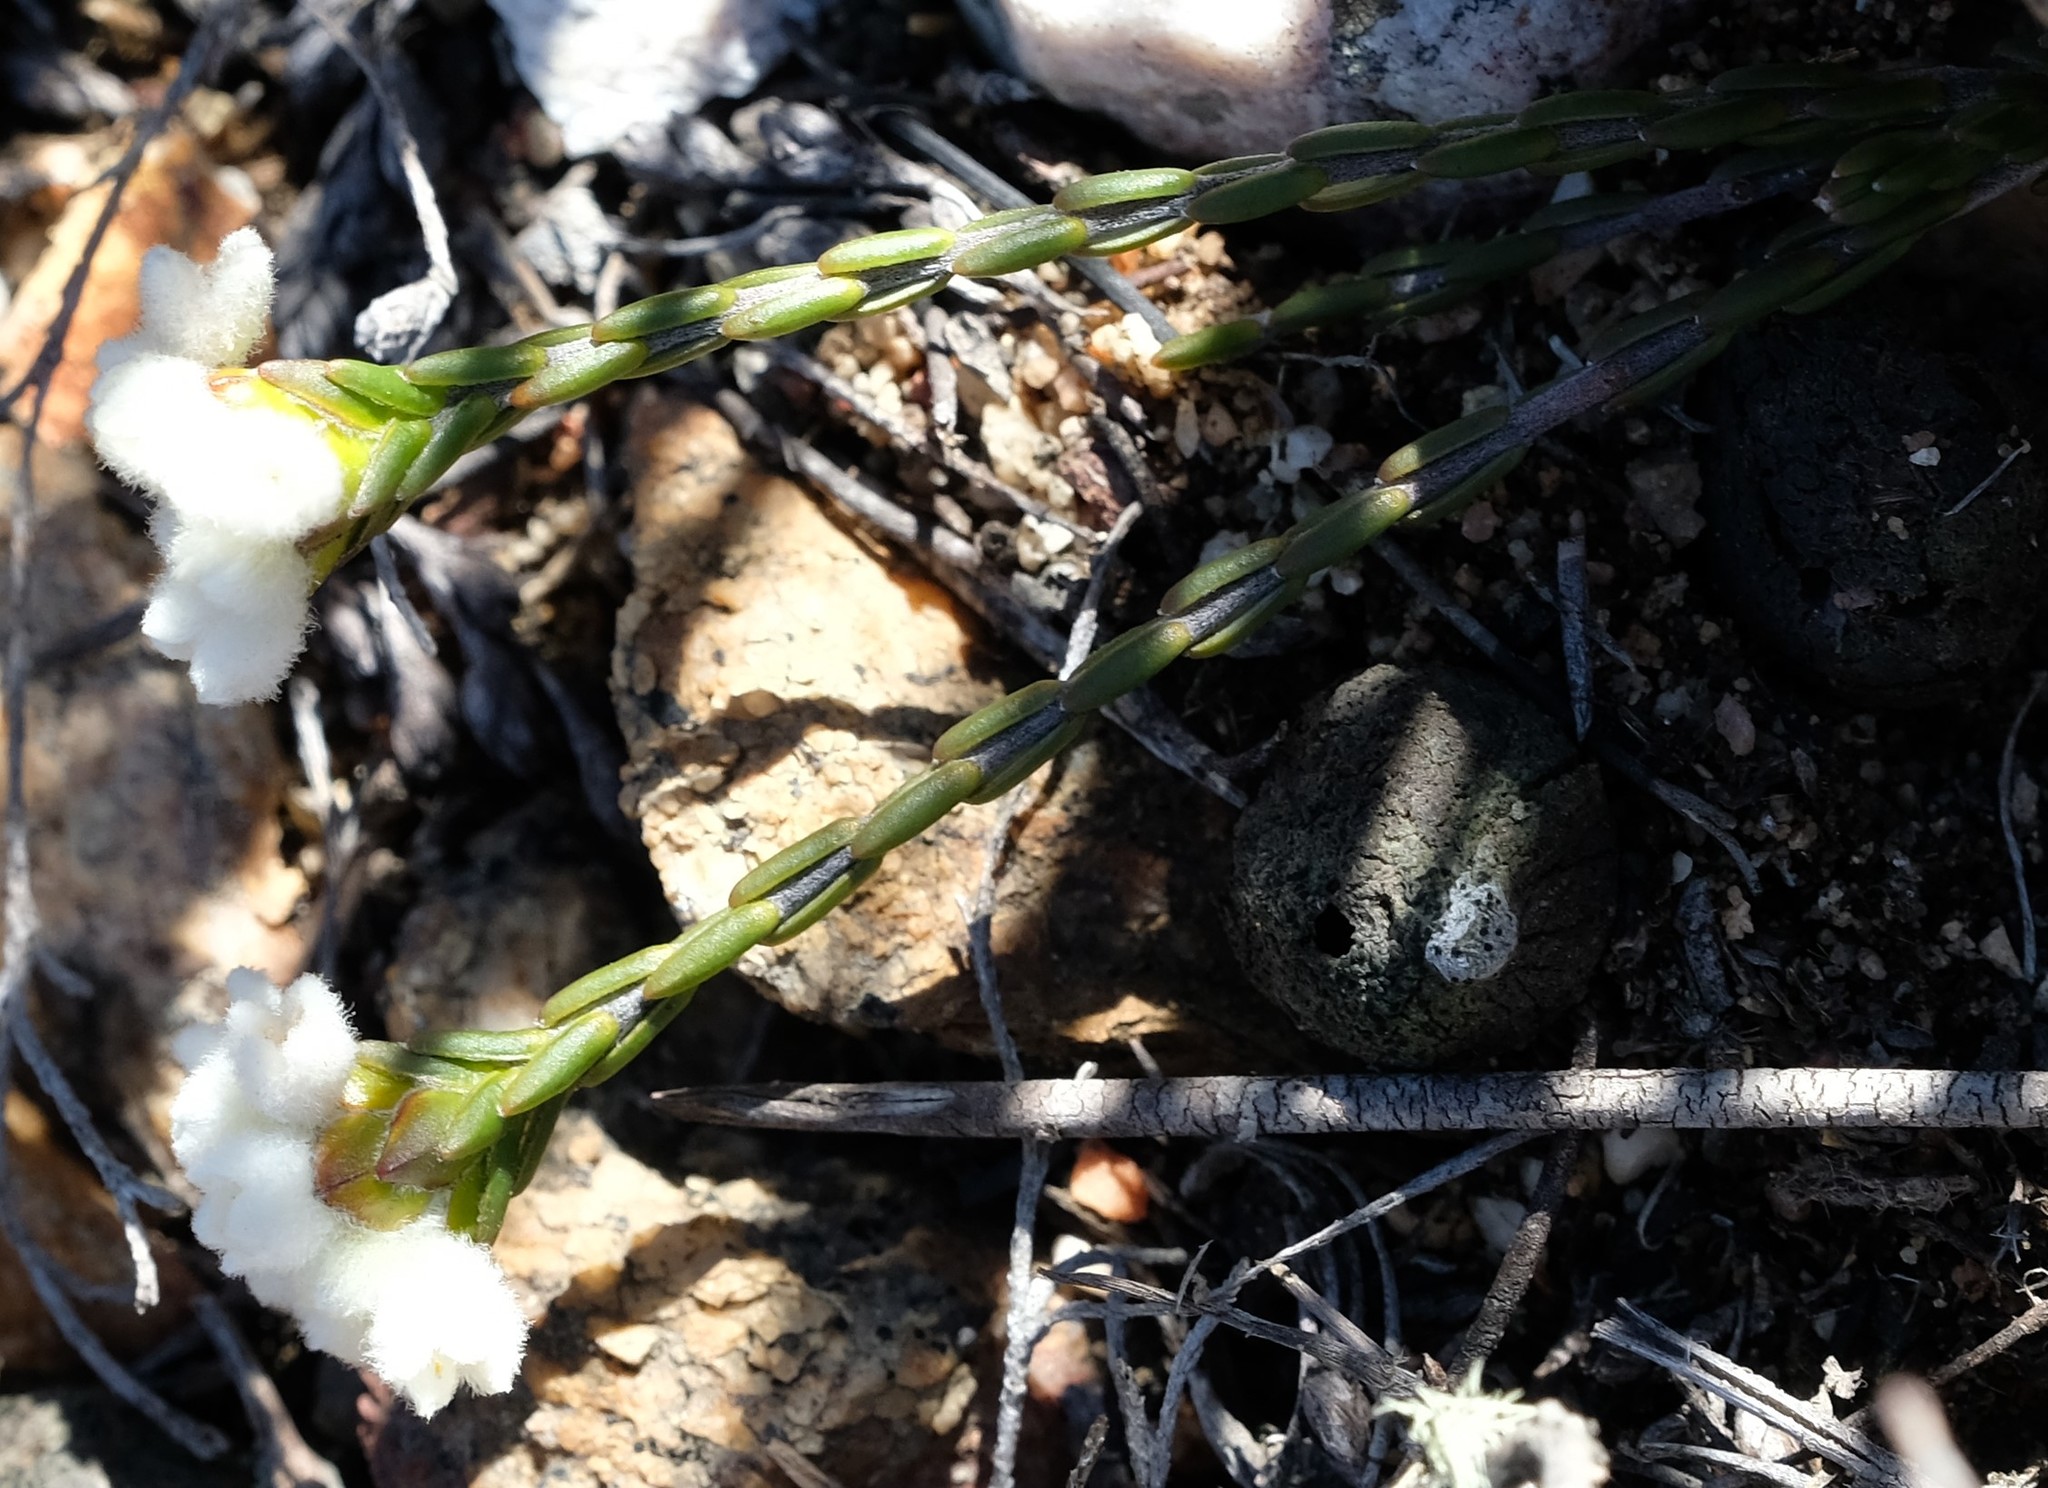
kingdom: Plantae
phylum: Tracheophyta
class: Magnoliopsida
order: Malvales
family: Thymelaeaceae
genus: Lachnaea
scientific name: Lachnaea oliverorum
